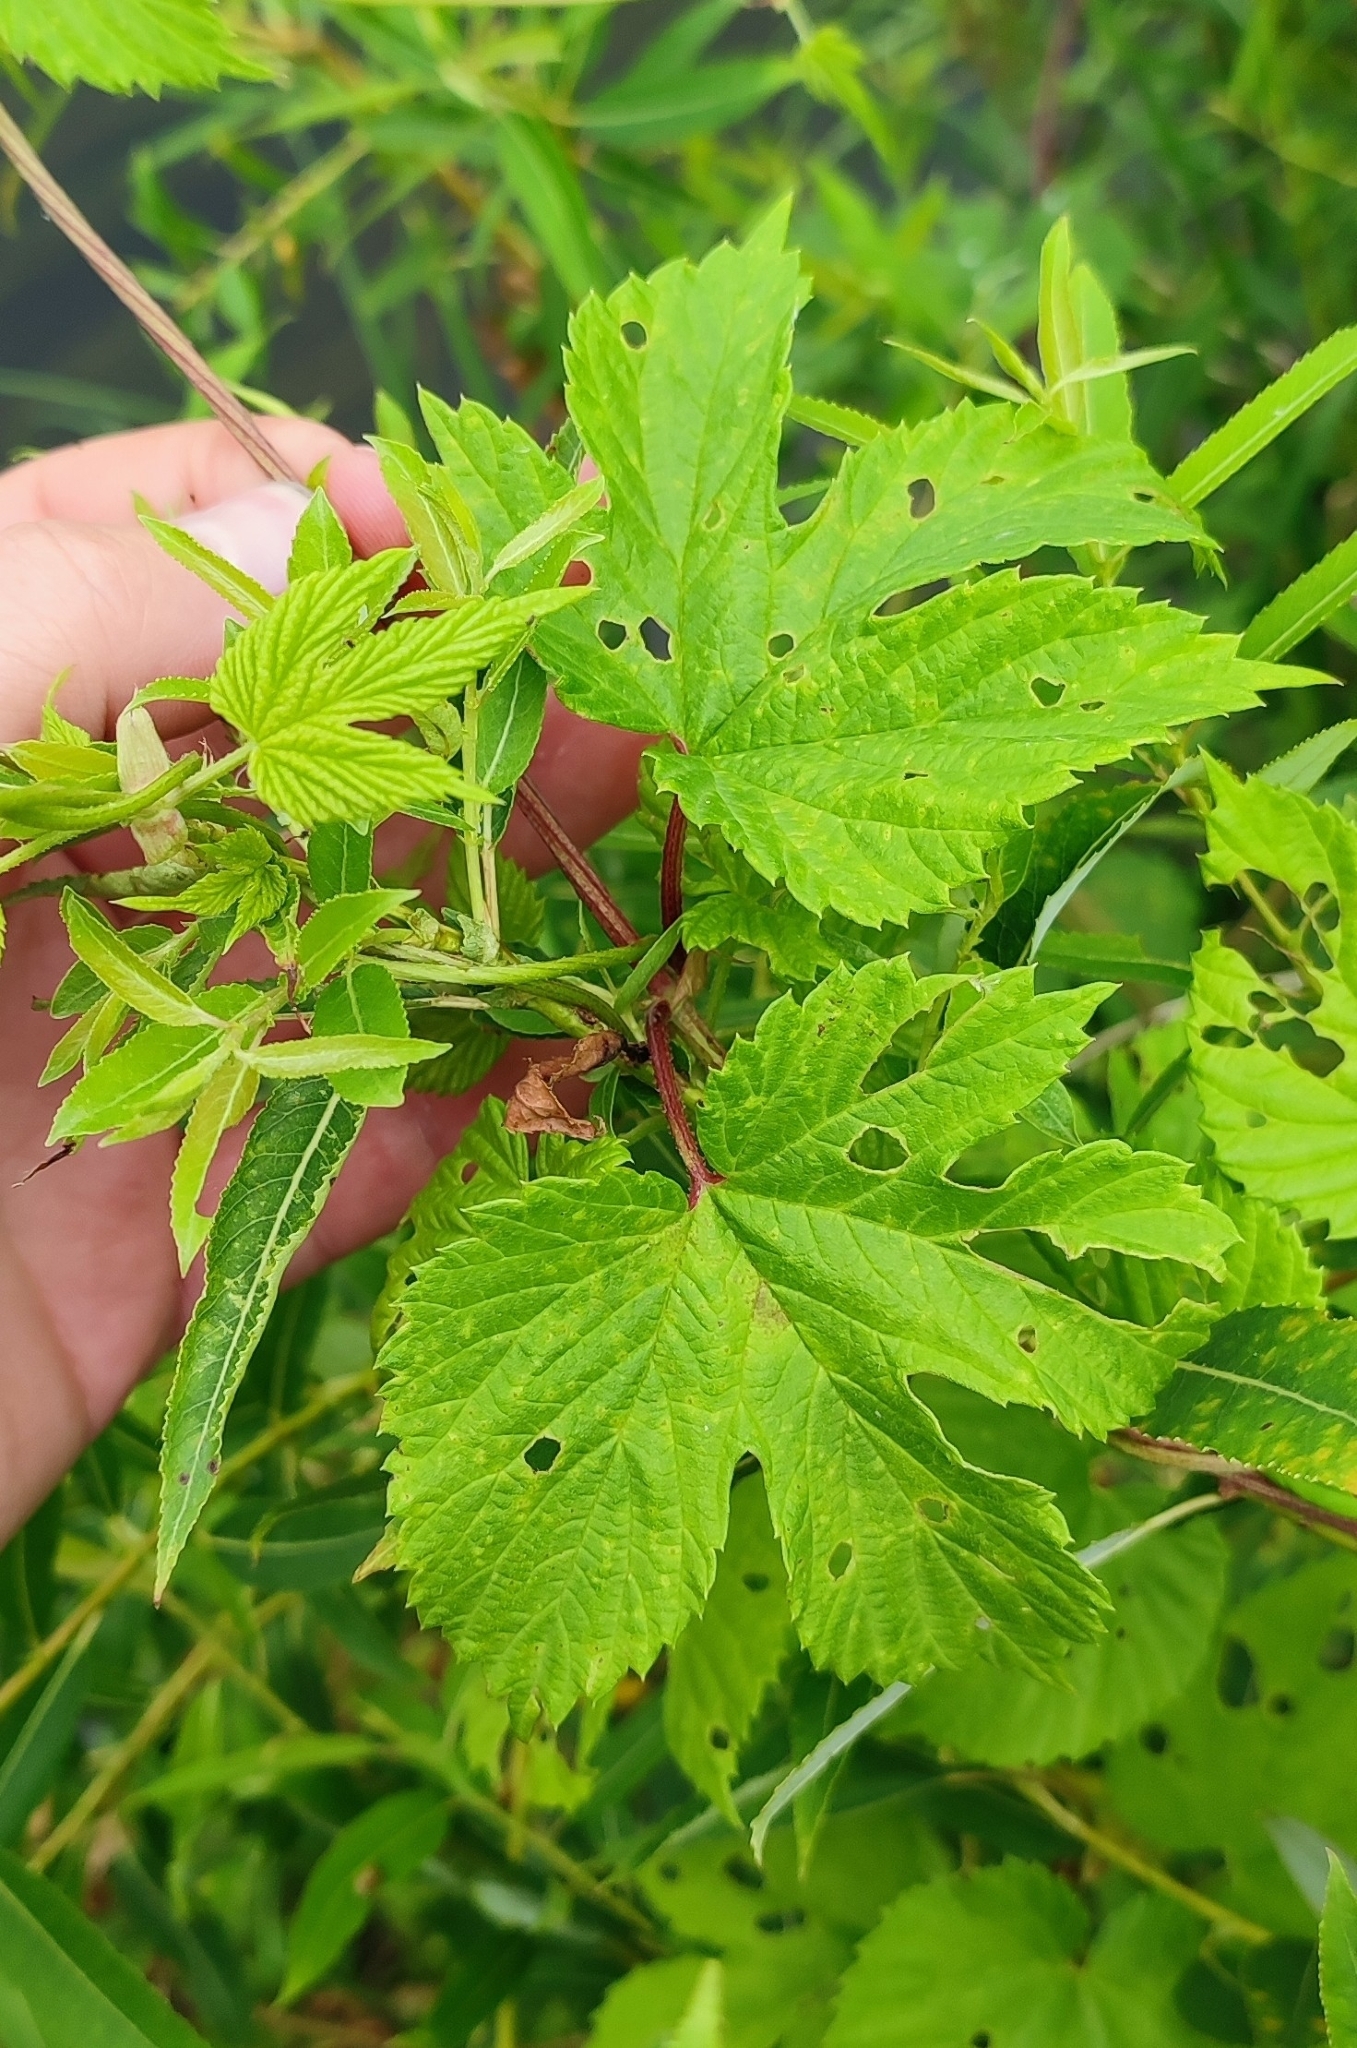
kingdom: Plantae
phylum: Tracheophyta
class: Magnoliopsida
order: Rosales
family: Cannabaceae
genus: Humulus
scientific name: Humulus lupulus
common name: Hop
